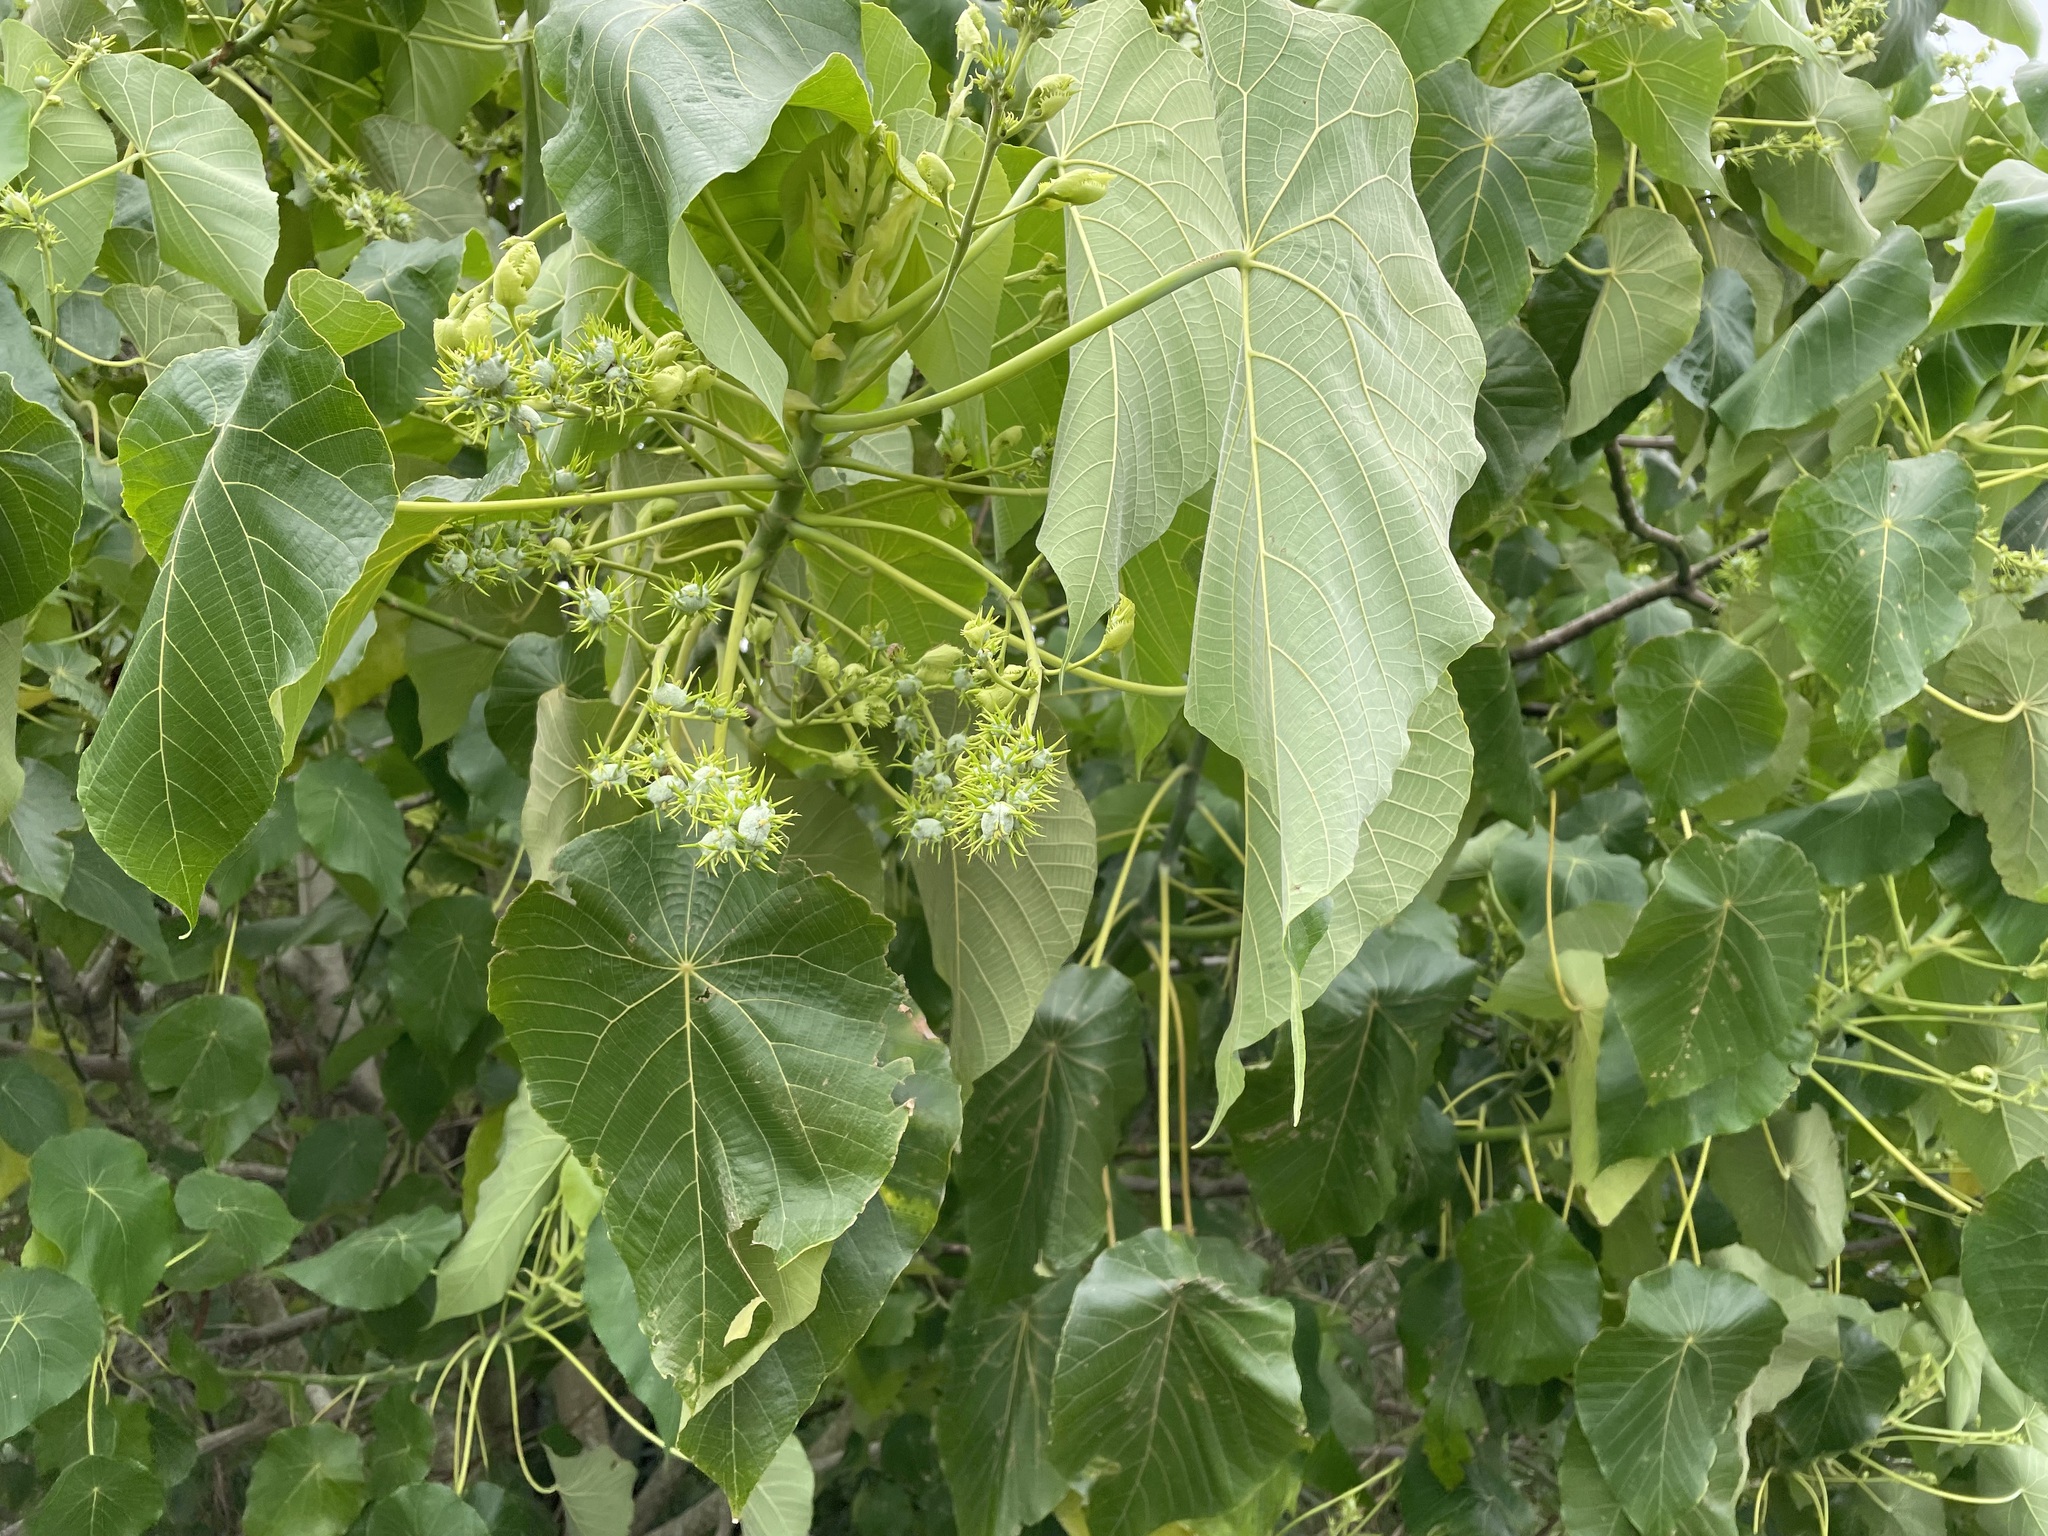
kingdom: Plantae
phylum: Tracheophyta
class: Magnoliopsida
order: Malpighiales
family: Euphorbiaceae
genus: Macaranga
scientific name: Macaranga tanarius
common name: Parasol leaf tree
